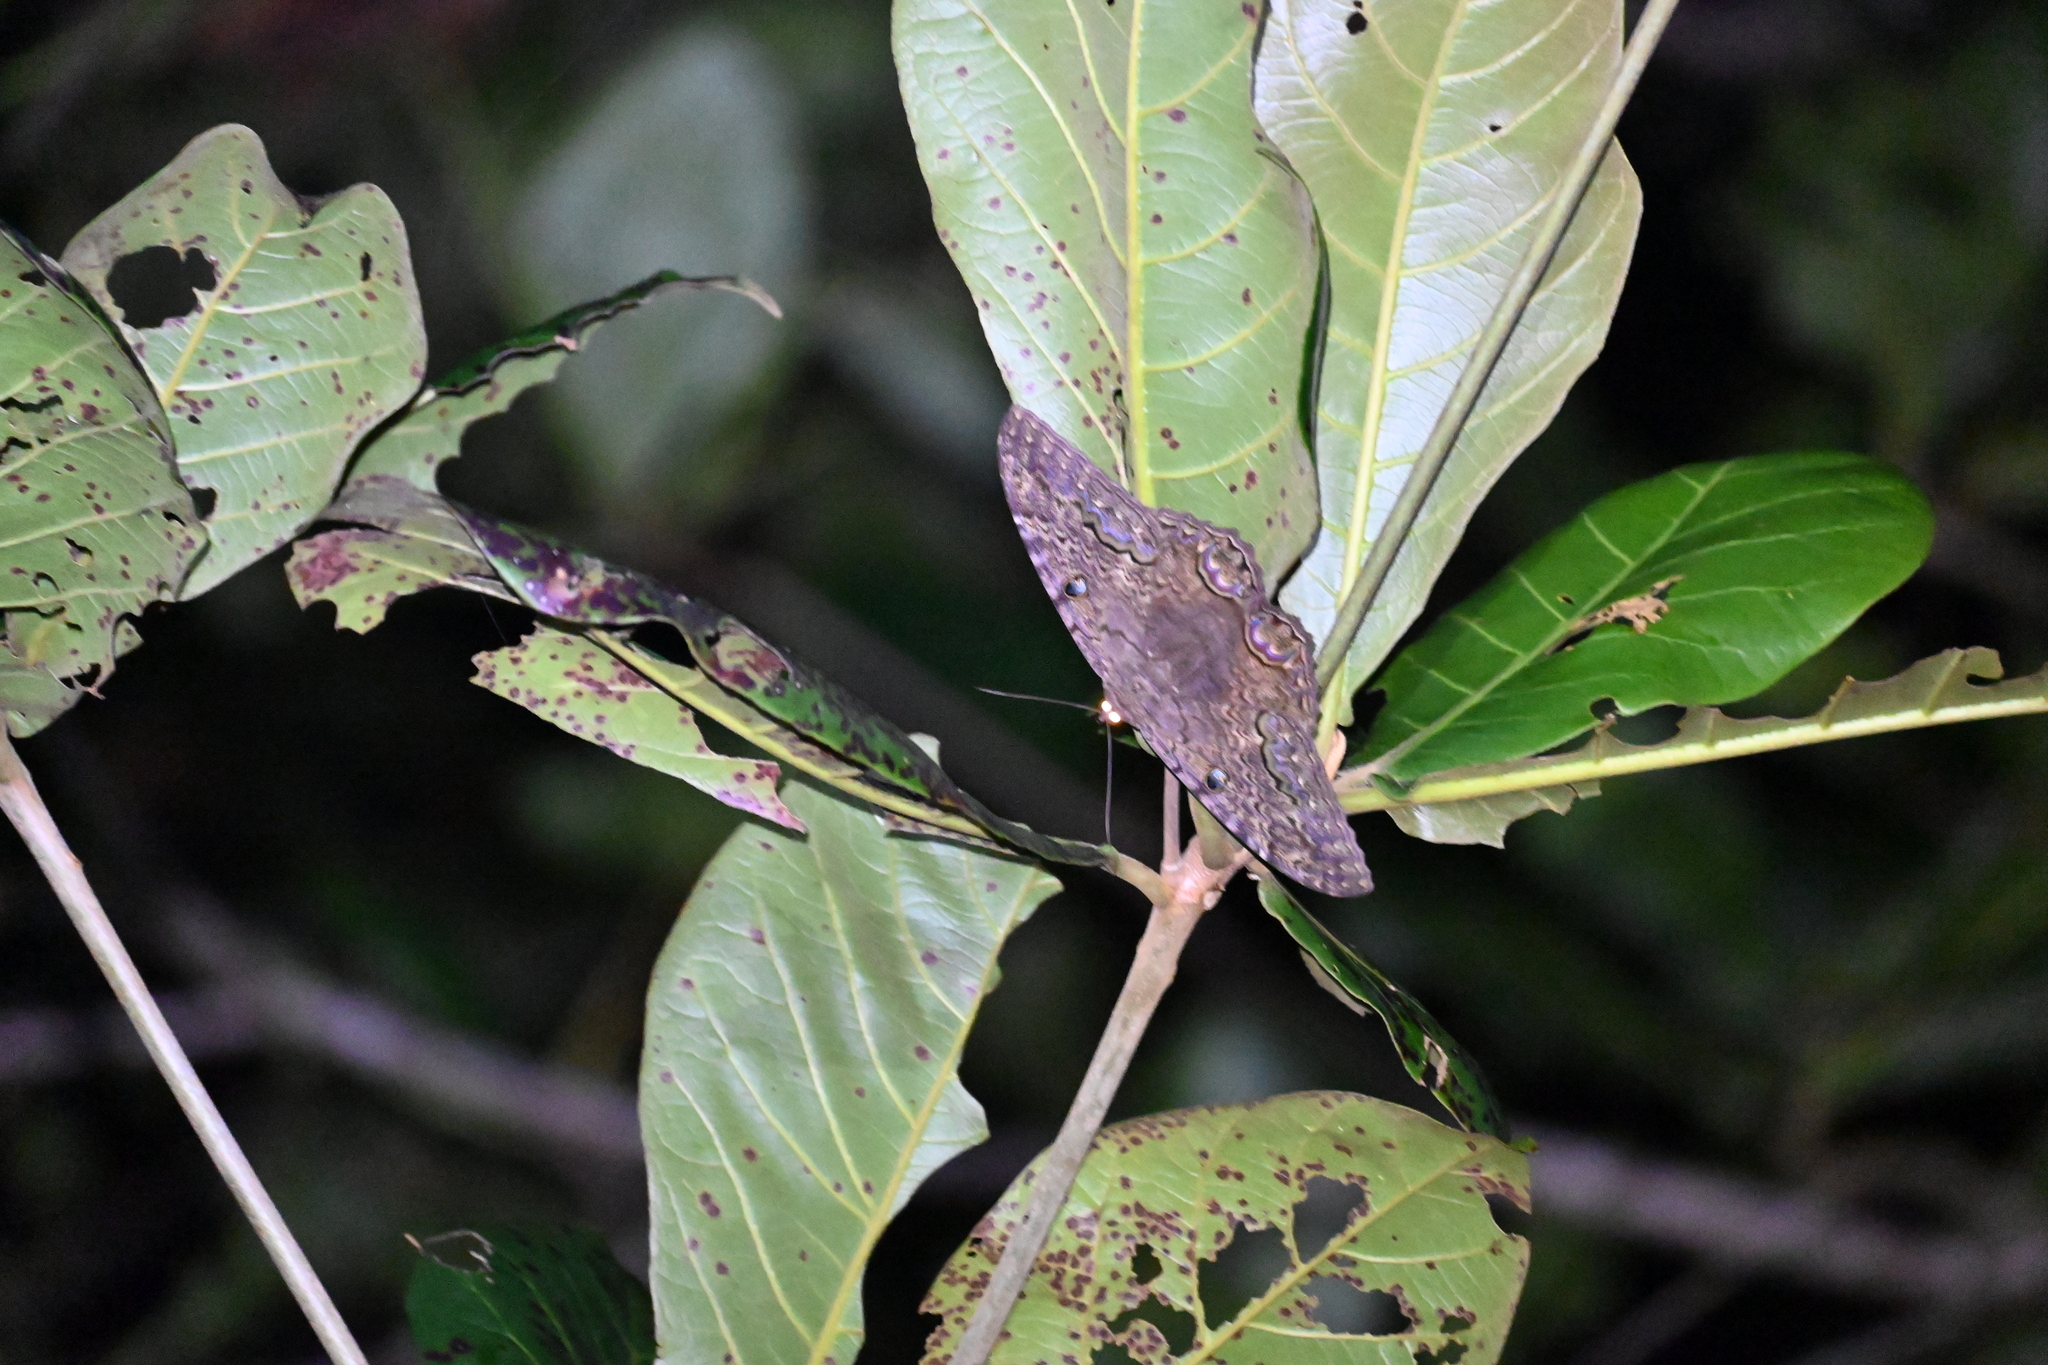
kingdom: Animalia
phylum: Arthropoda
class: Insecta
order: Lepidoptera
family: Erebidae
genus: Ascalapha
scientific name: Ascalapha odorata
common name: Black witch
